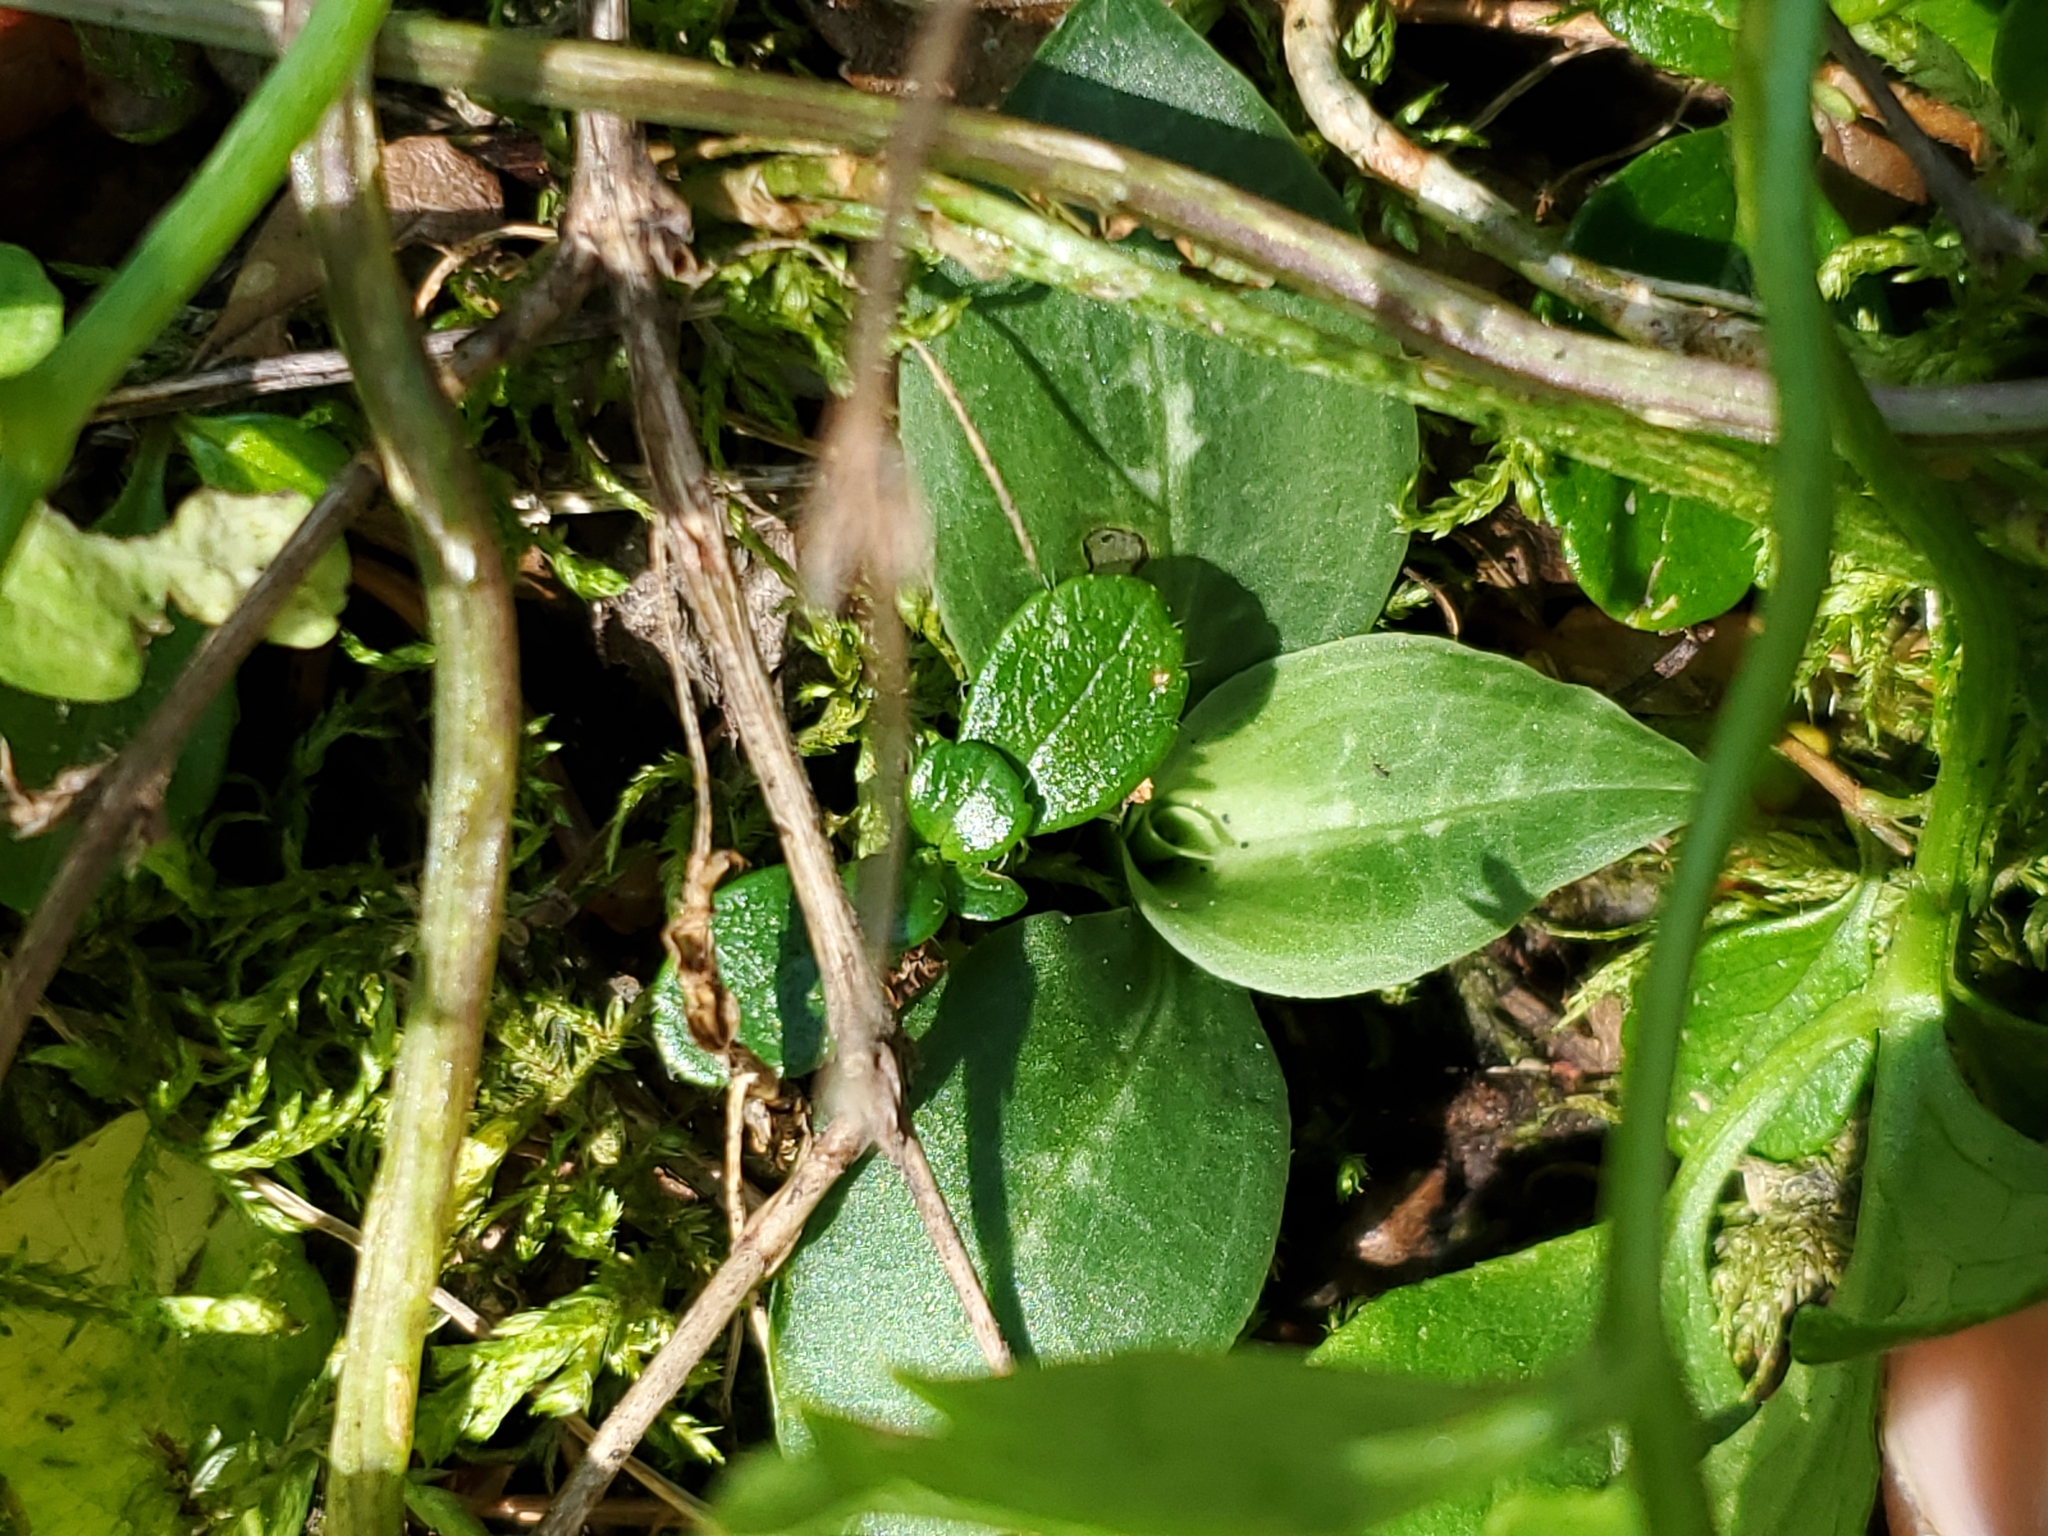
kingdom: Plantae
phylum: Tracheophyta
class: Liliopsida
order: Asparagales
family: Orchidaceae
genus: Goodyera
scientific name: Goodyera repens
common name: Creeping lady's-tresses
